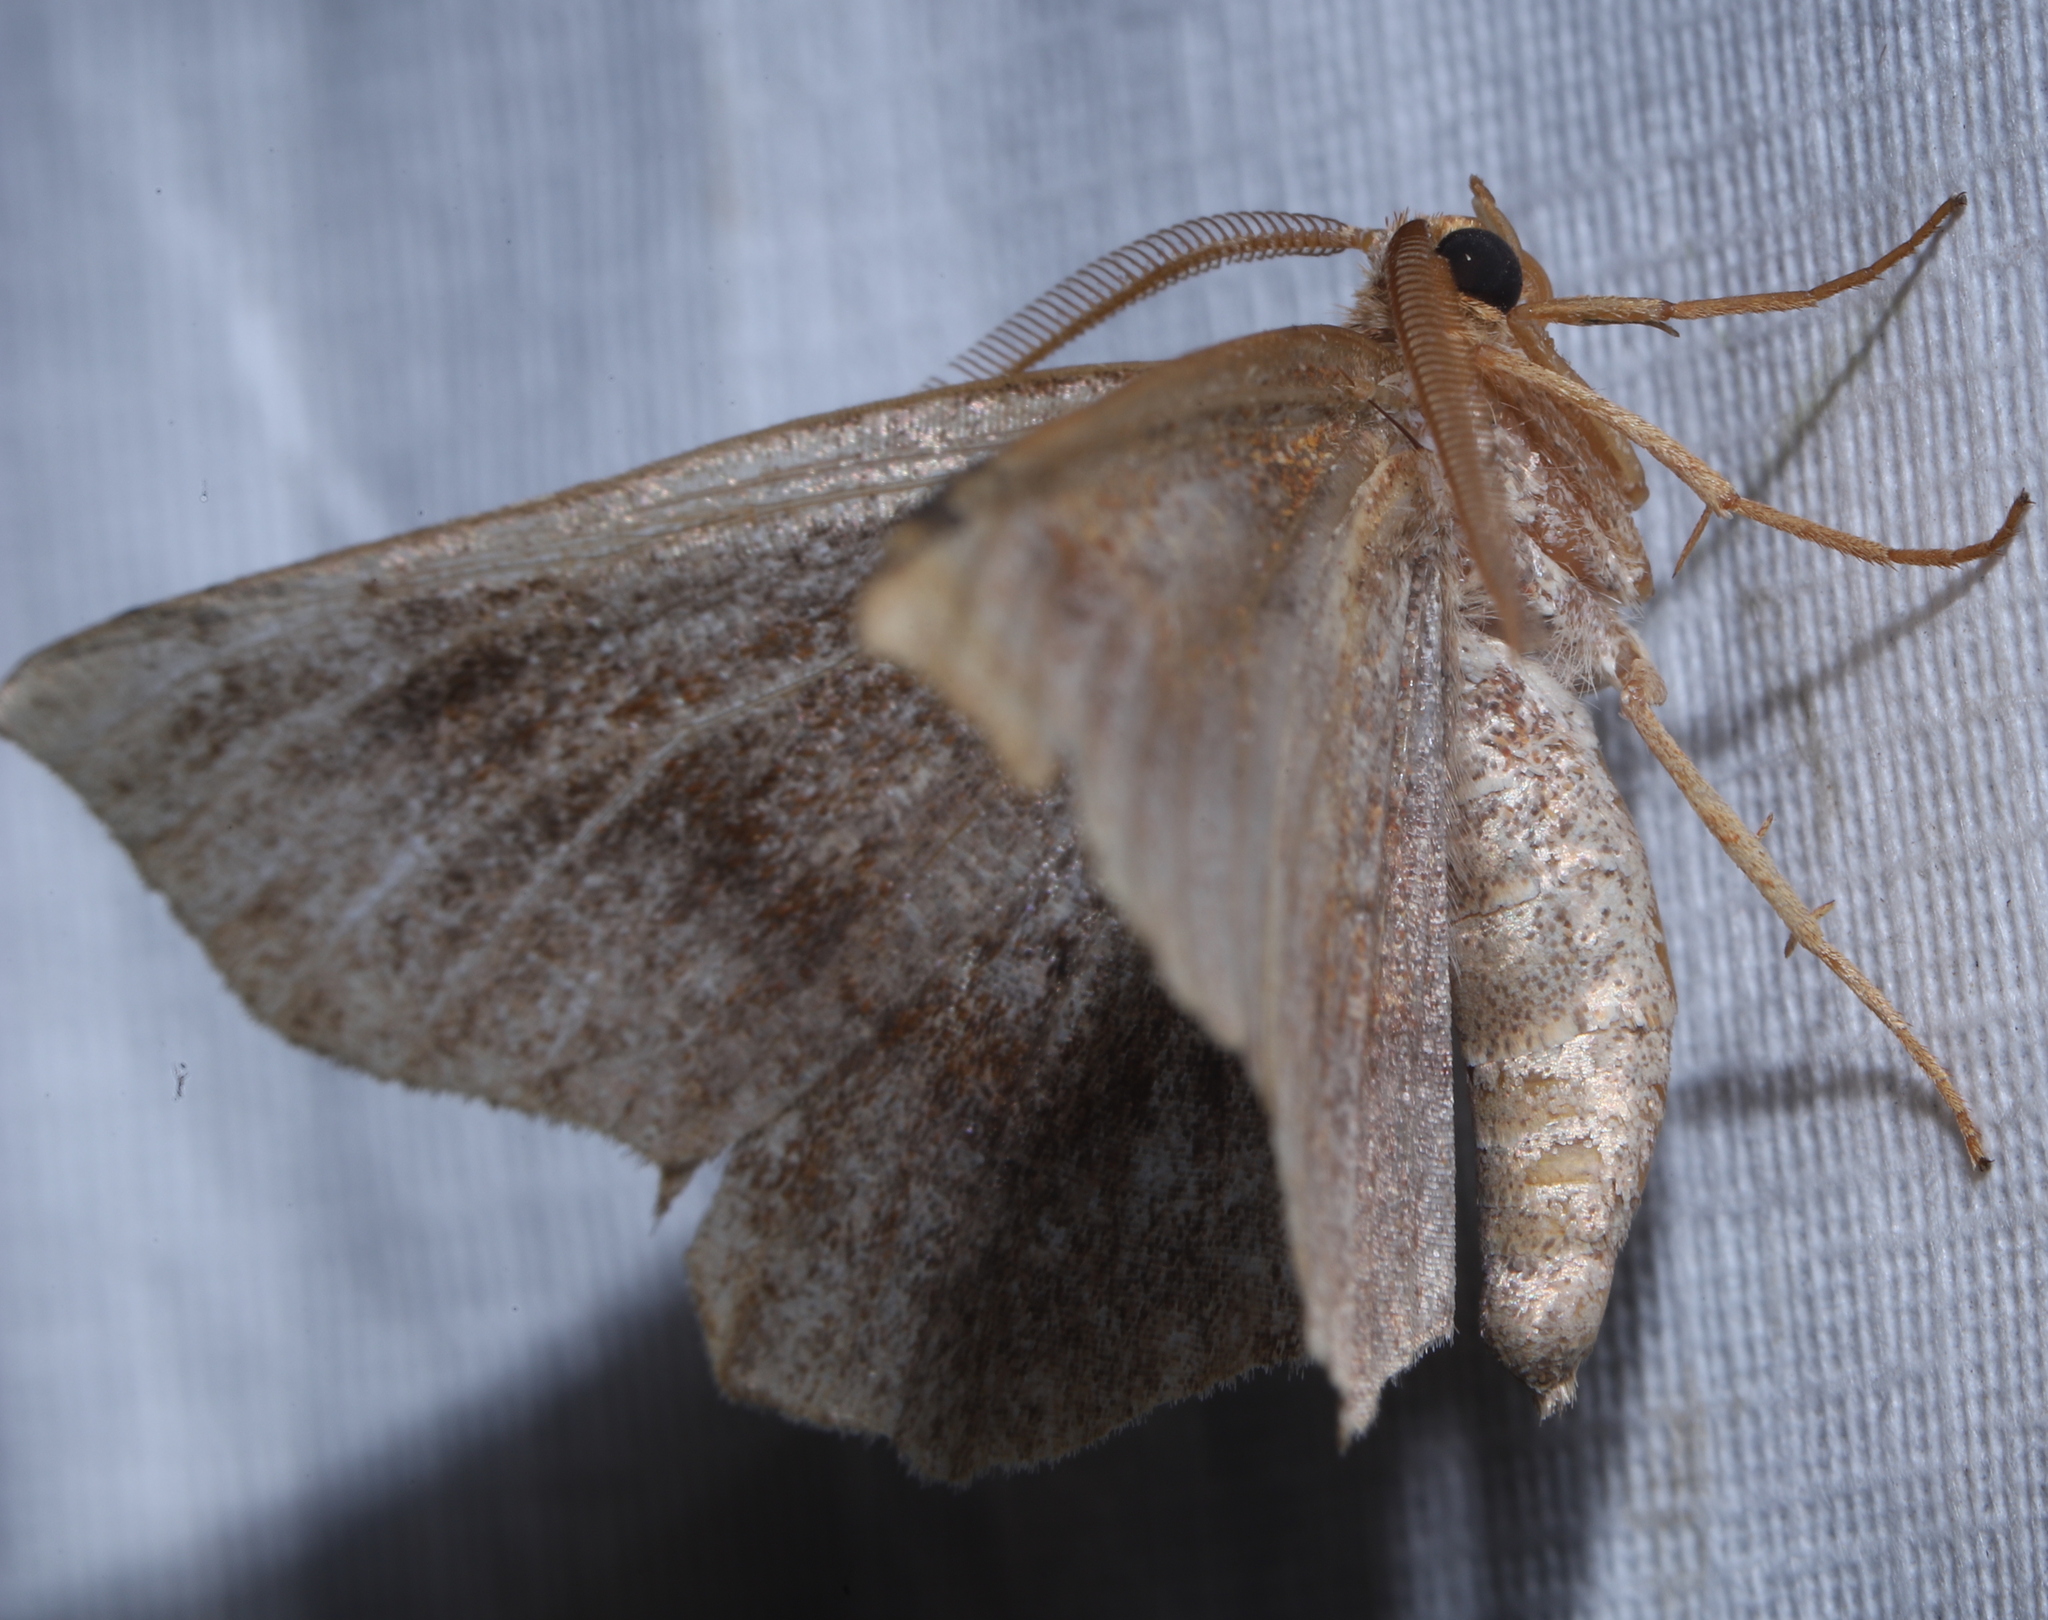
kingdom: Animalia
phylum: Arthropoda
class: Insecta
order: Lepidoptera
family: Geometridae
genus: Metarranthis
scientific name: Metarranthis hypochraria
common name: Common metarranthis
